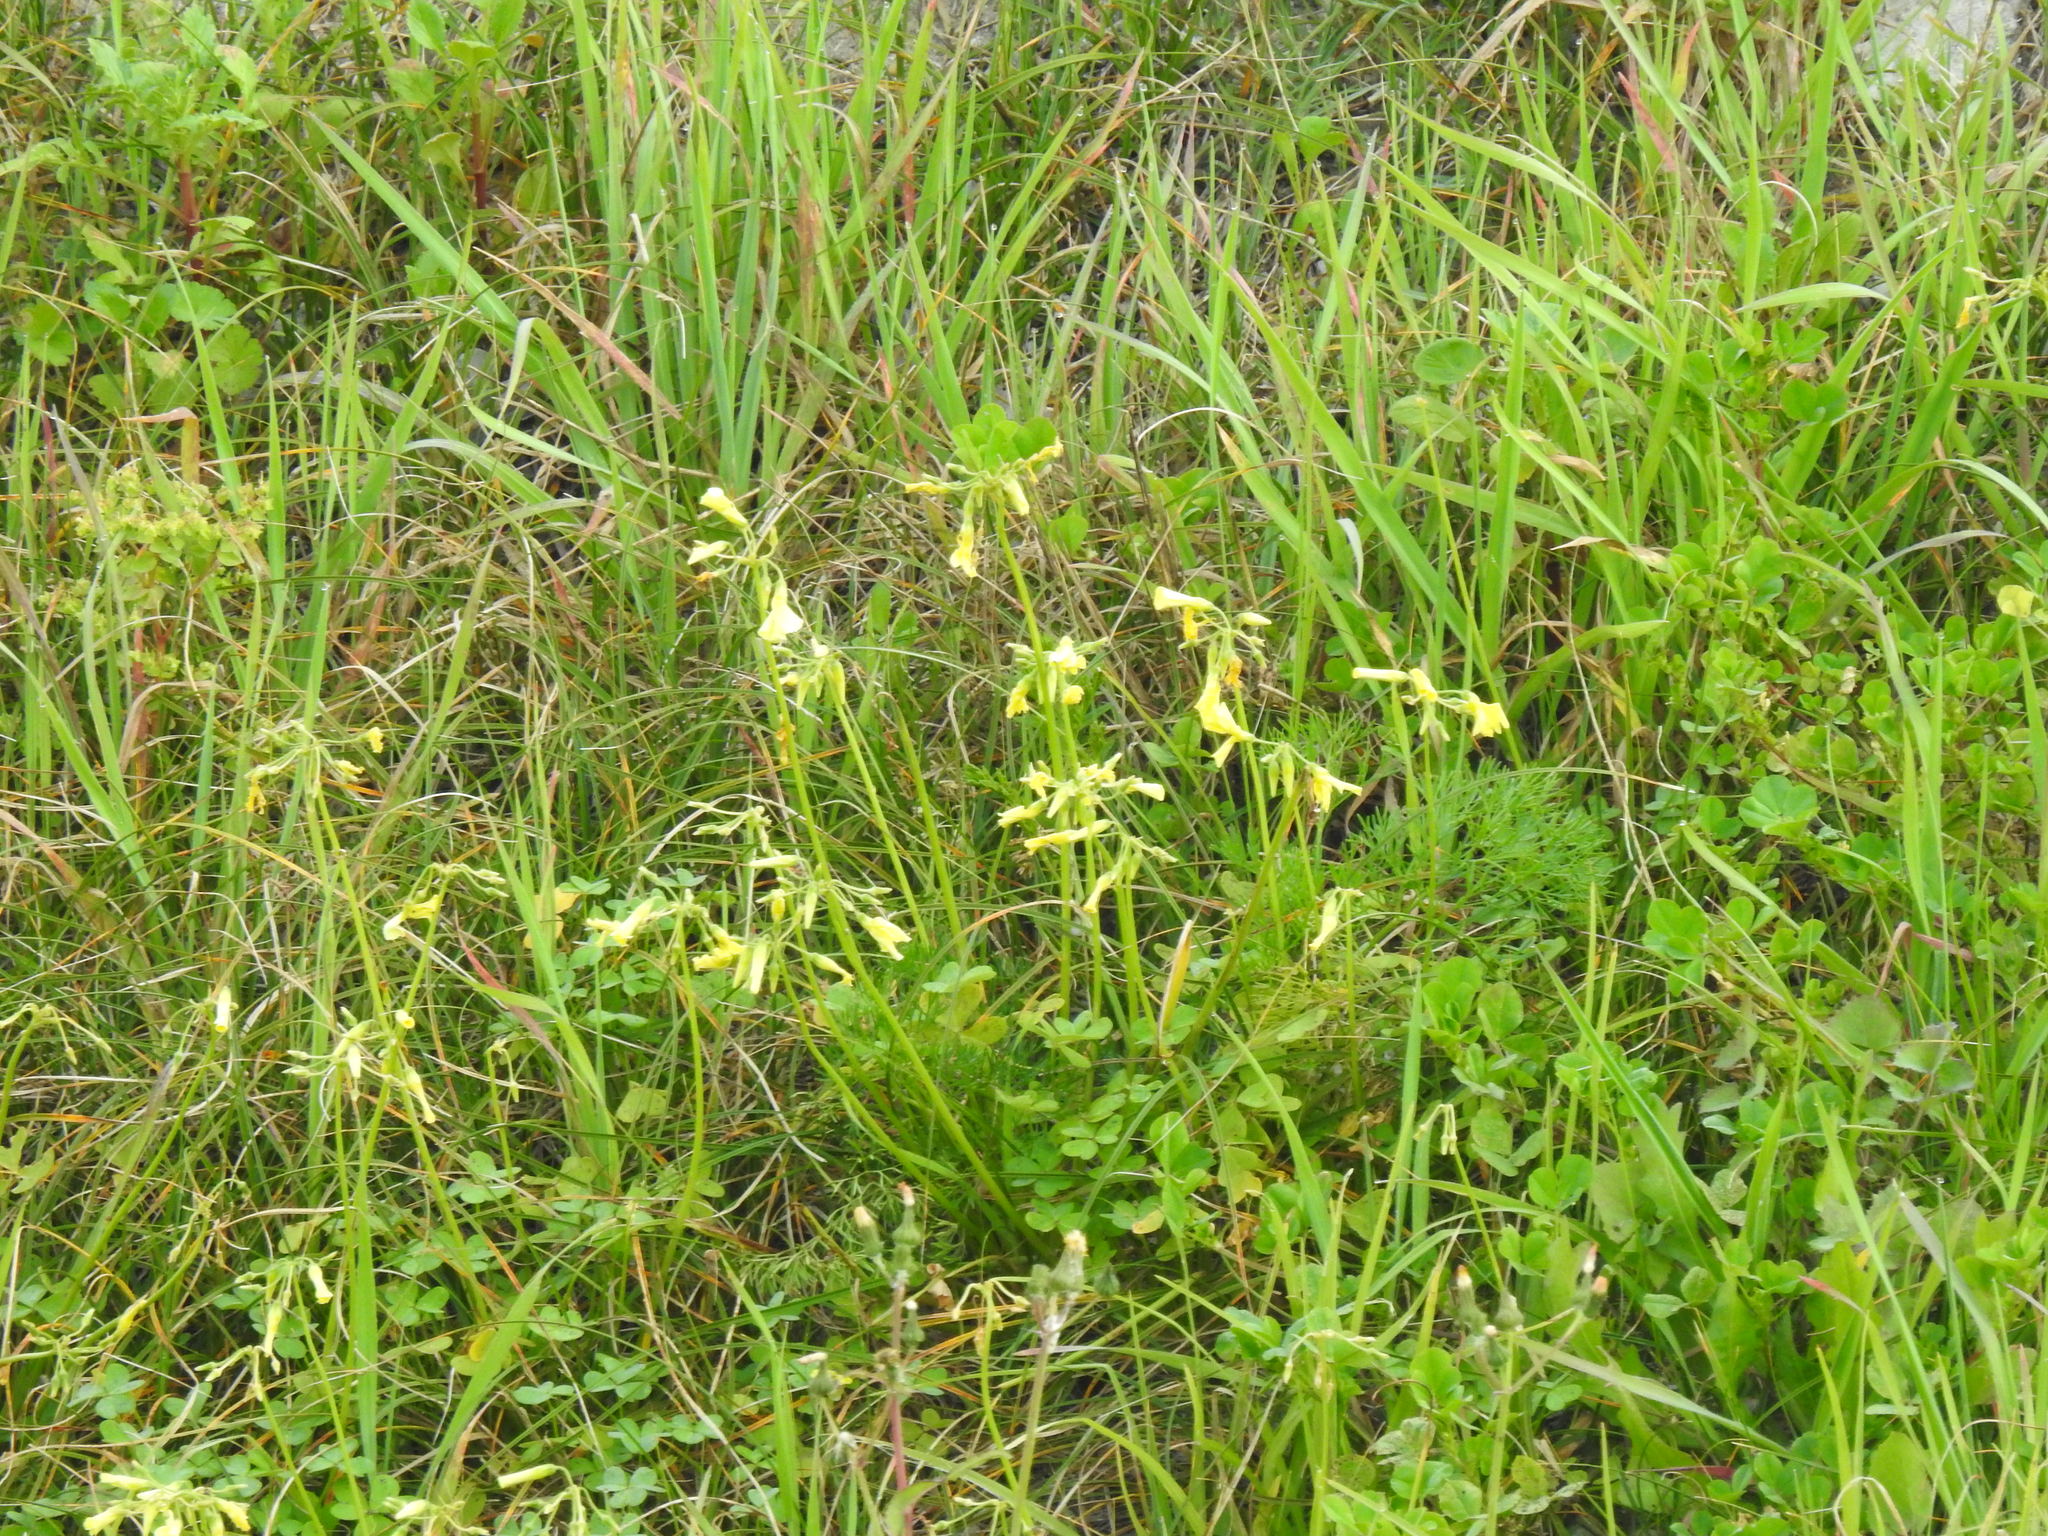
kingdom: Plantae
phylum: Tracheophyta
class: Magnoliopsida
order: Oxalidales
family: Oxalidaceae
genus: Oxalis
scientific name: Oxalis pes-caprae
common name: Bermuda-buttercup
